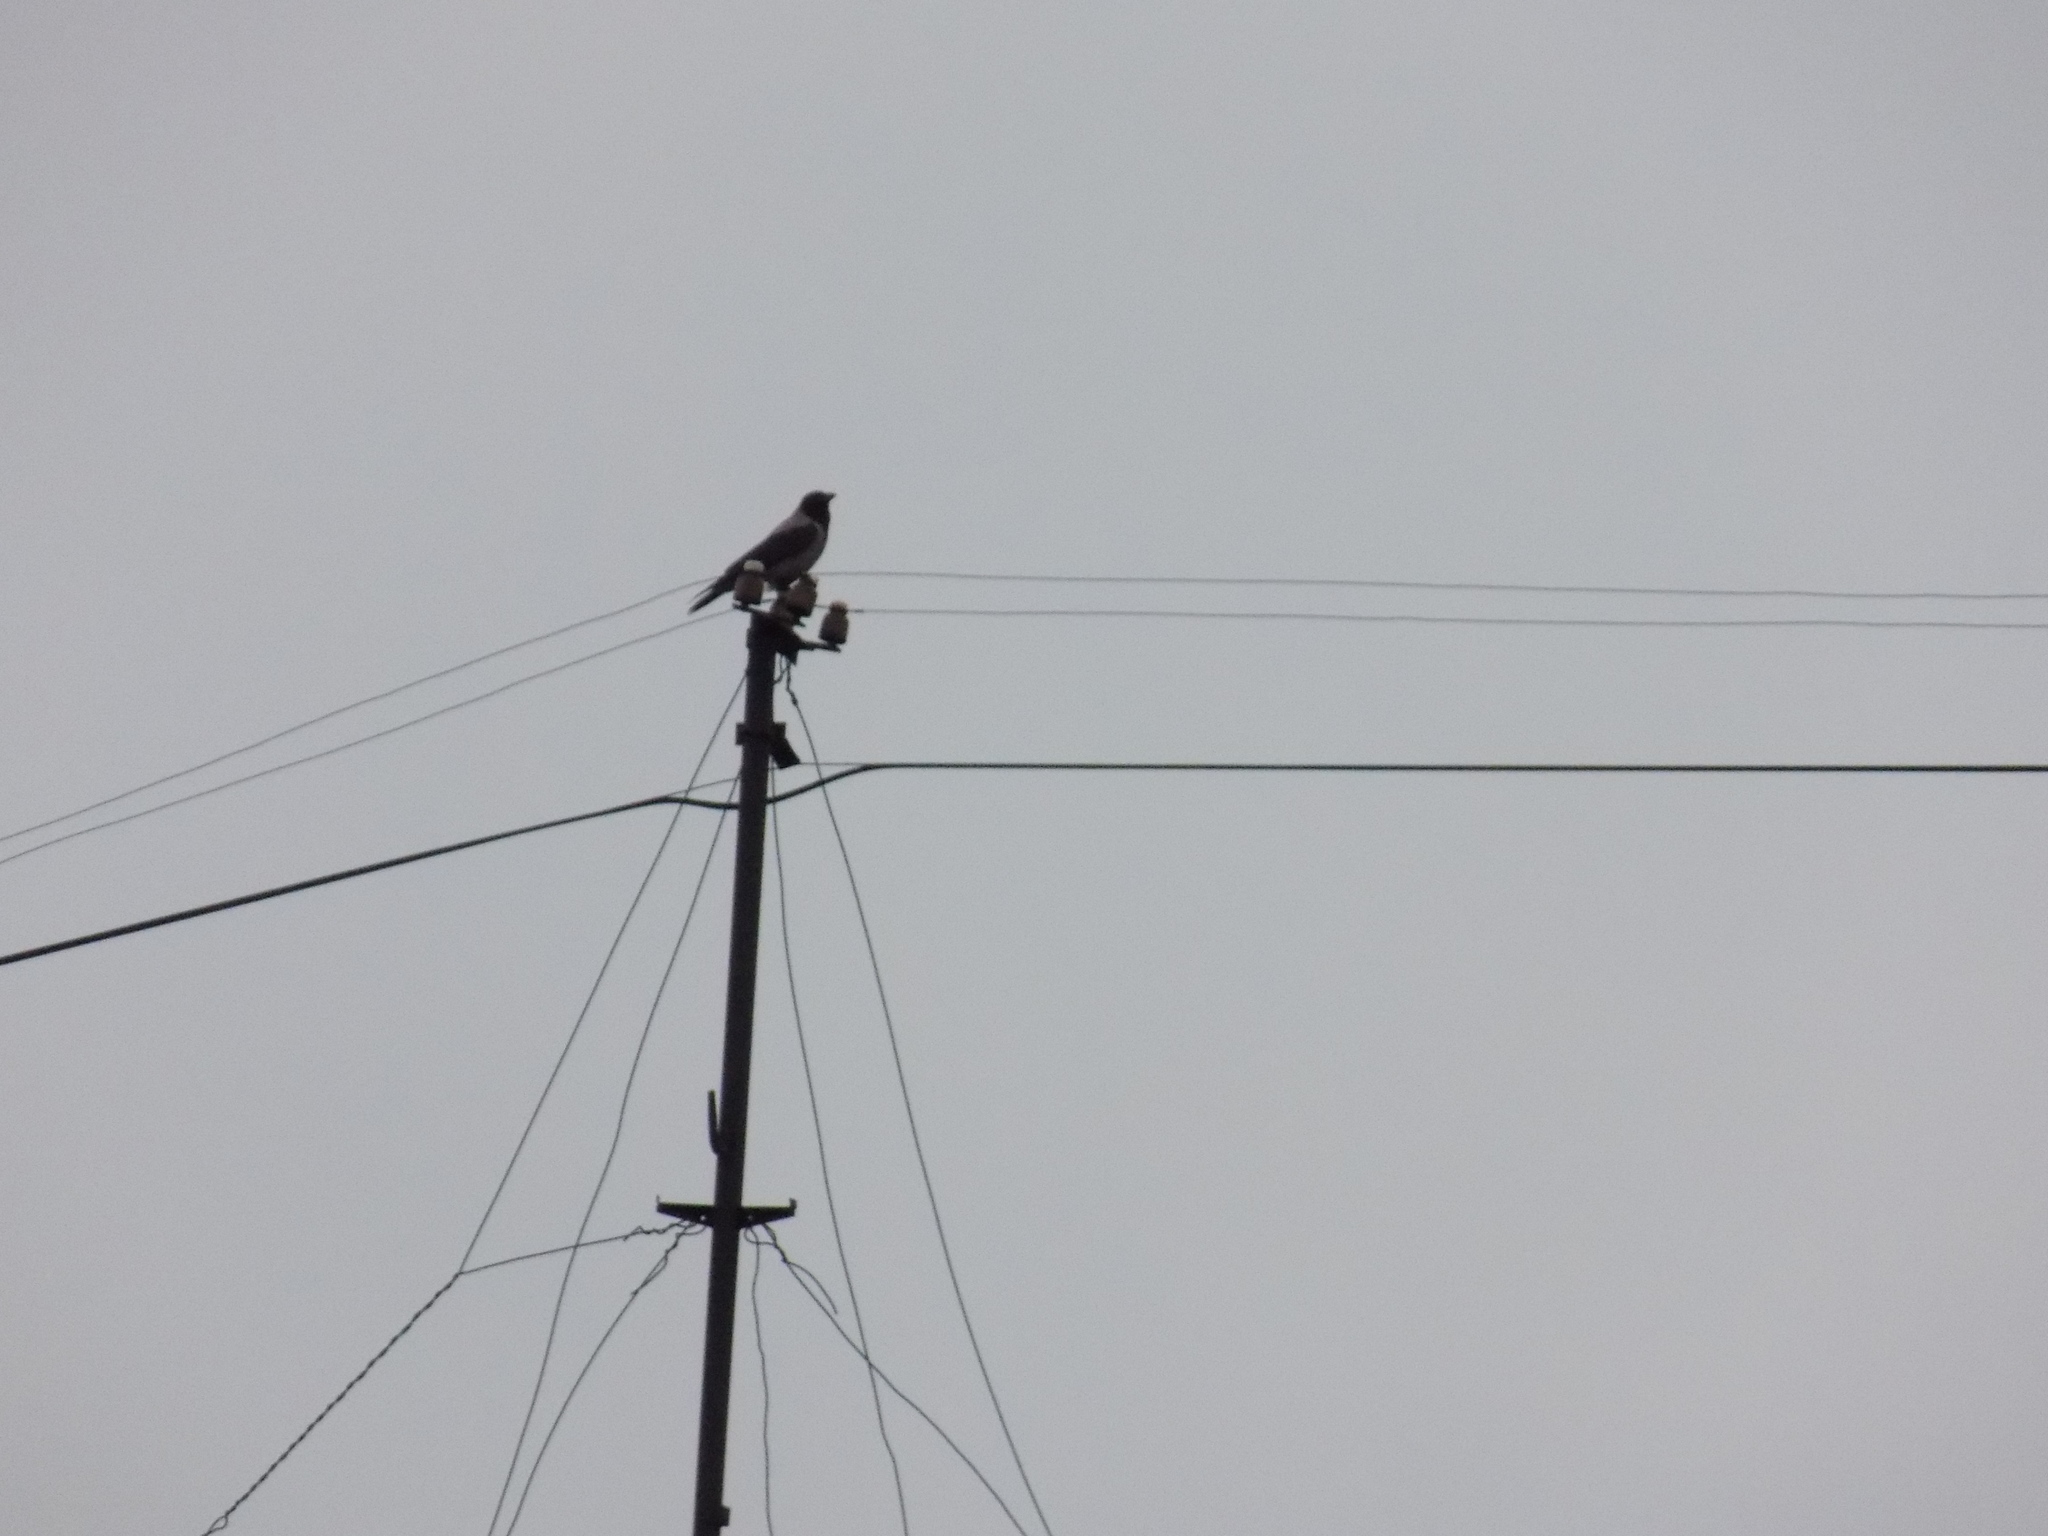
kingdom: Animalia
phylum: Chordata
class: Aves
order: Passeriformes
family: Corvidae
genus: Corvus
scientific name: Corvus cornix
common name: Hooded crow
